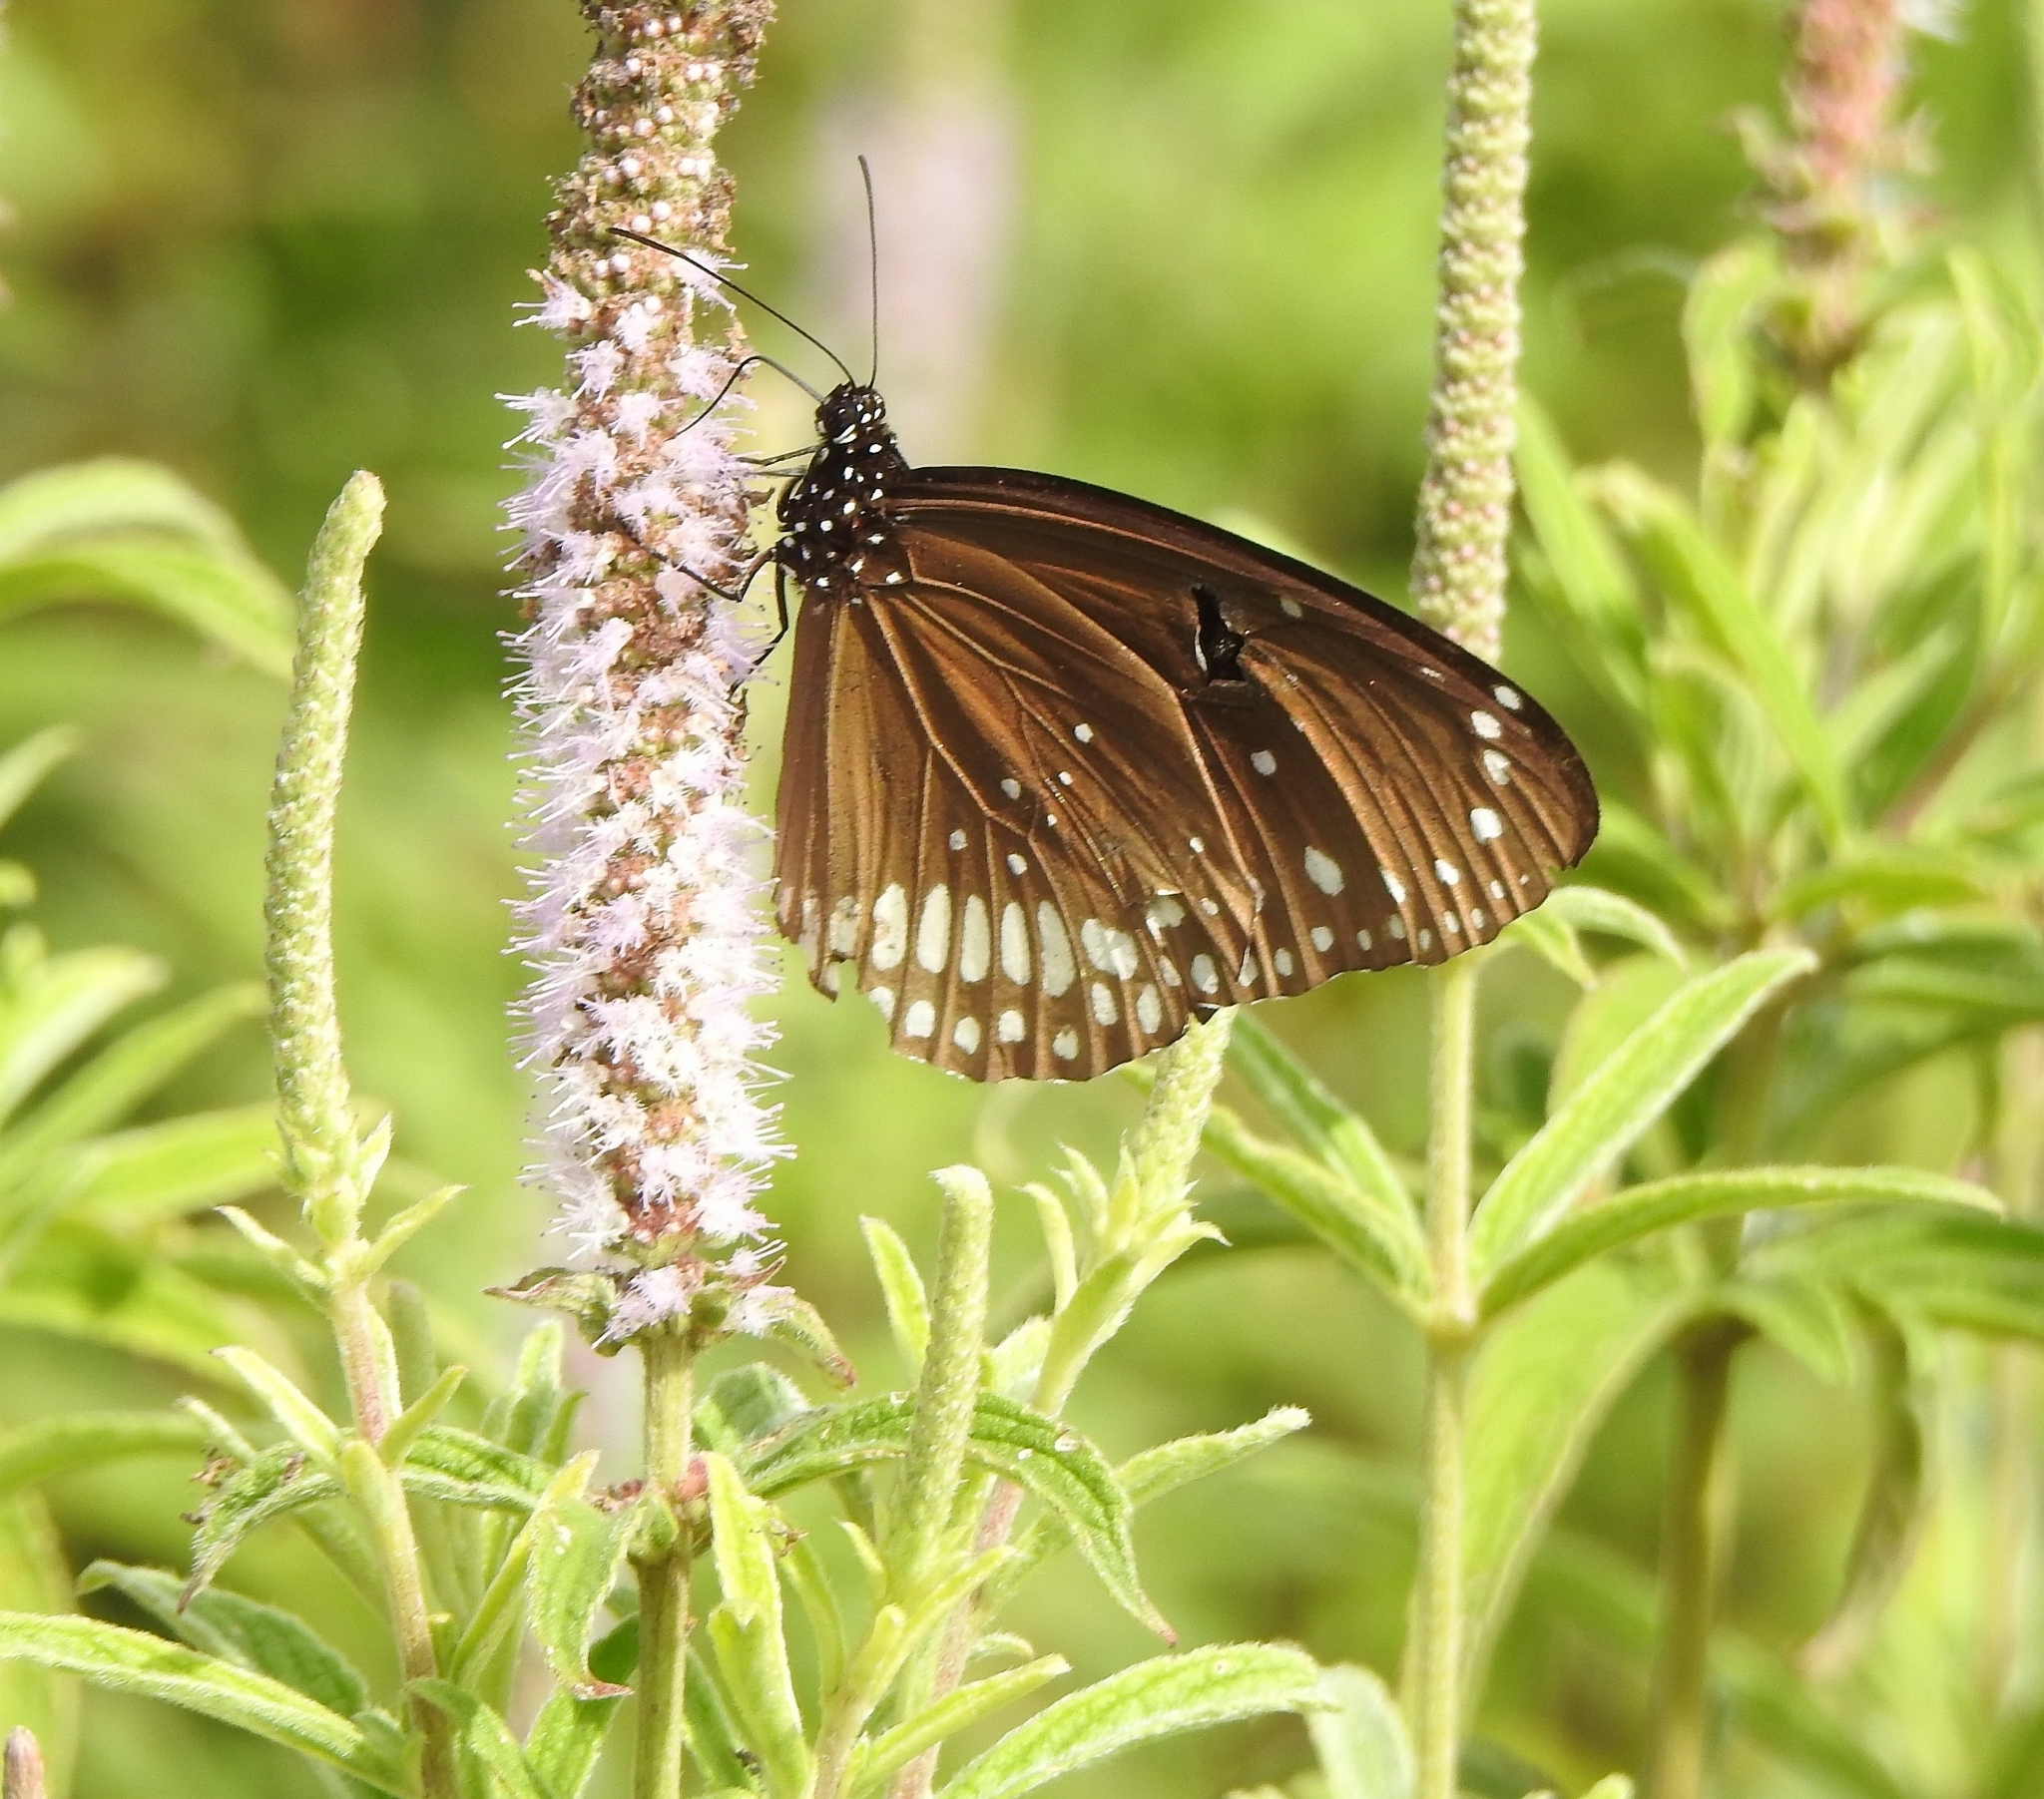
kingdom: Animalia
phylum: Arthropoda
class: Insecta
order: Lepidoptera
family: Nymphalidae
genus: Euploea
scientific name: Euploea sylvester
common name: Double-branded crow butterfly
